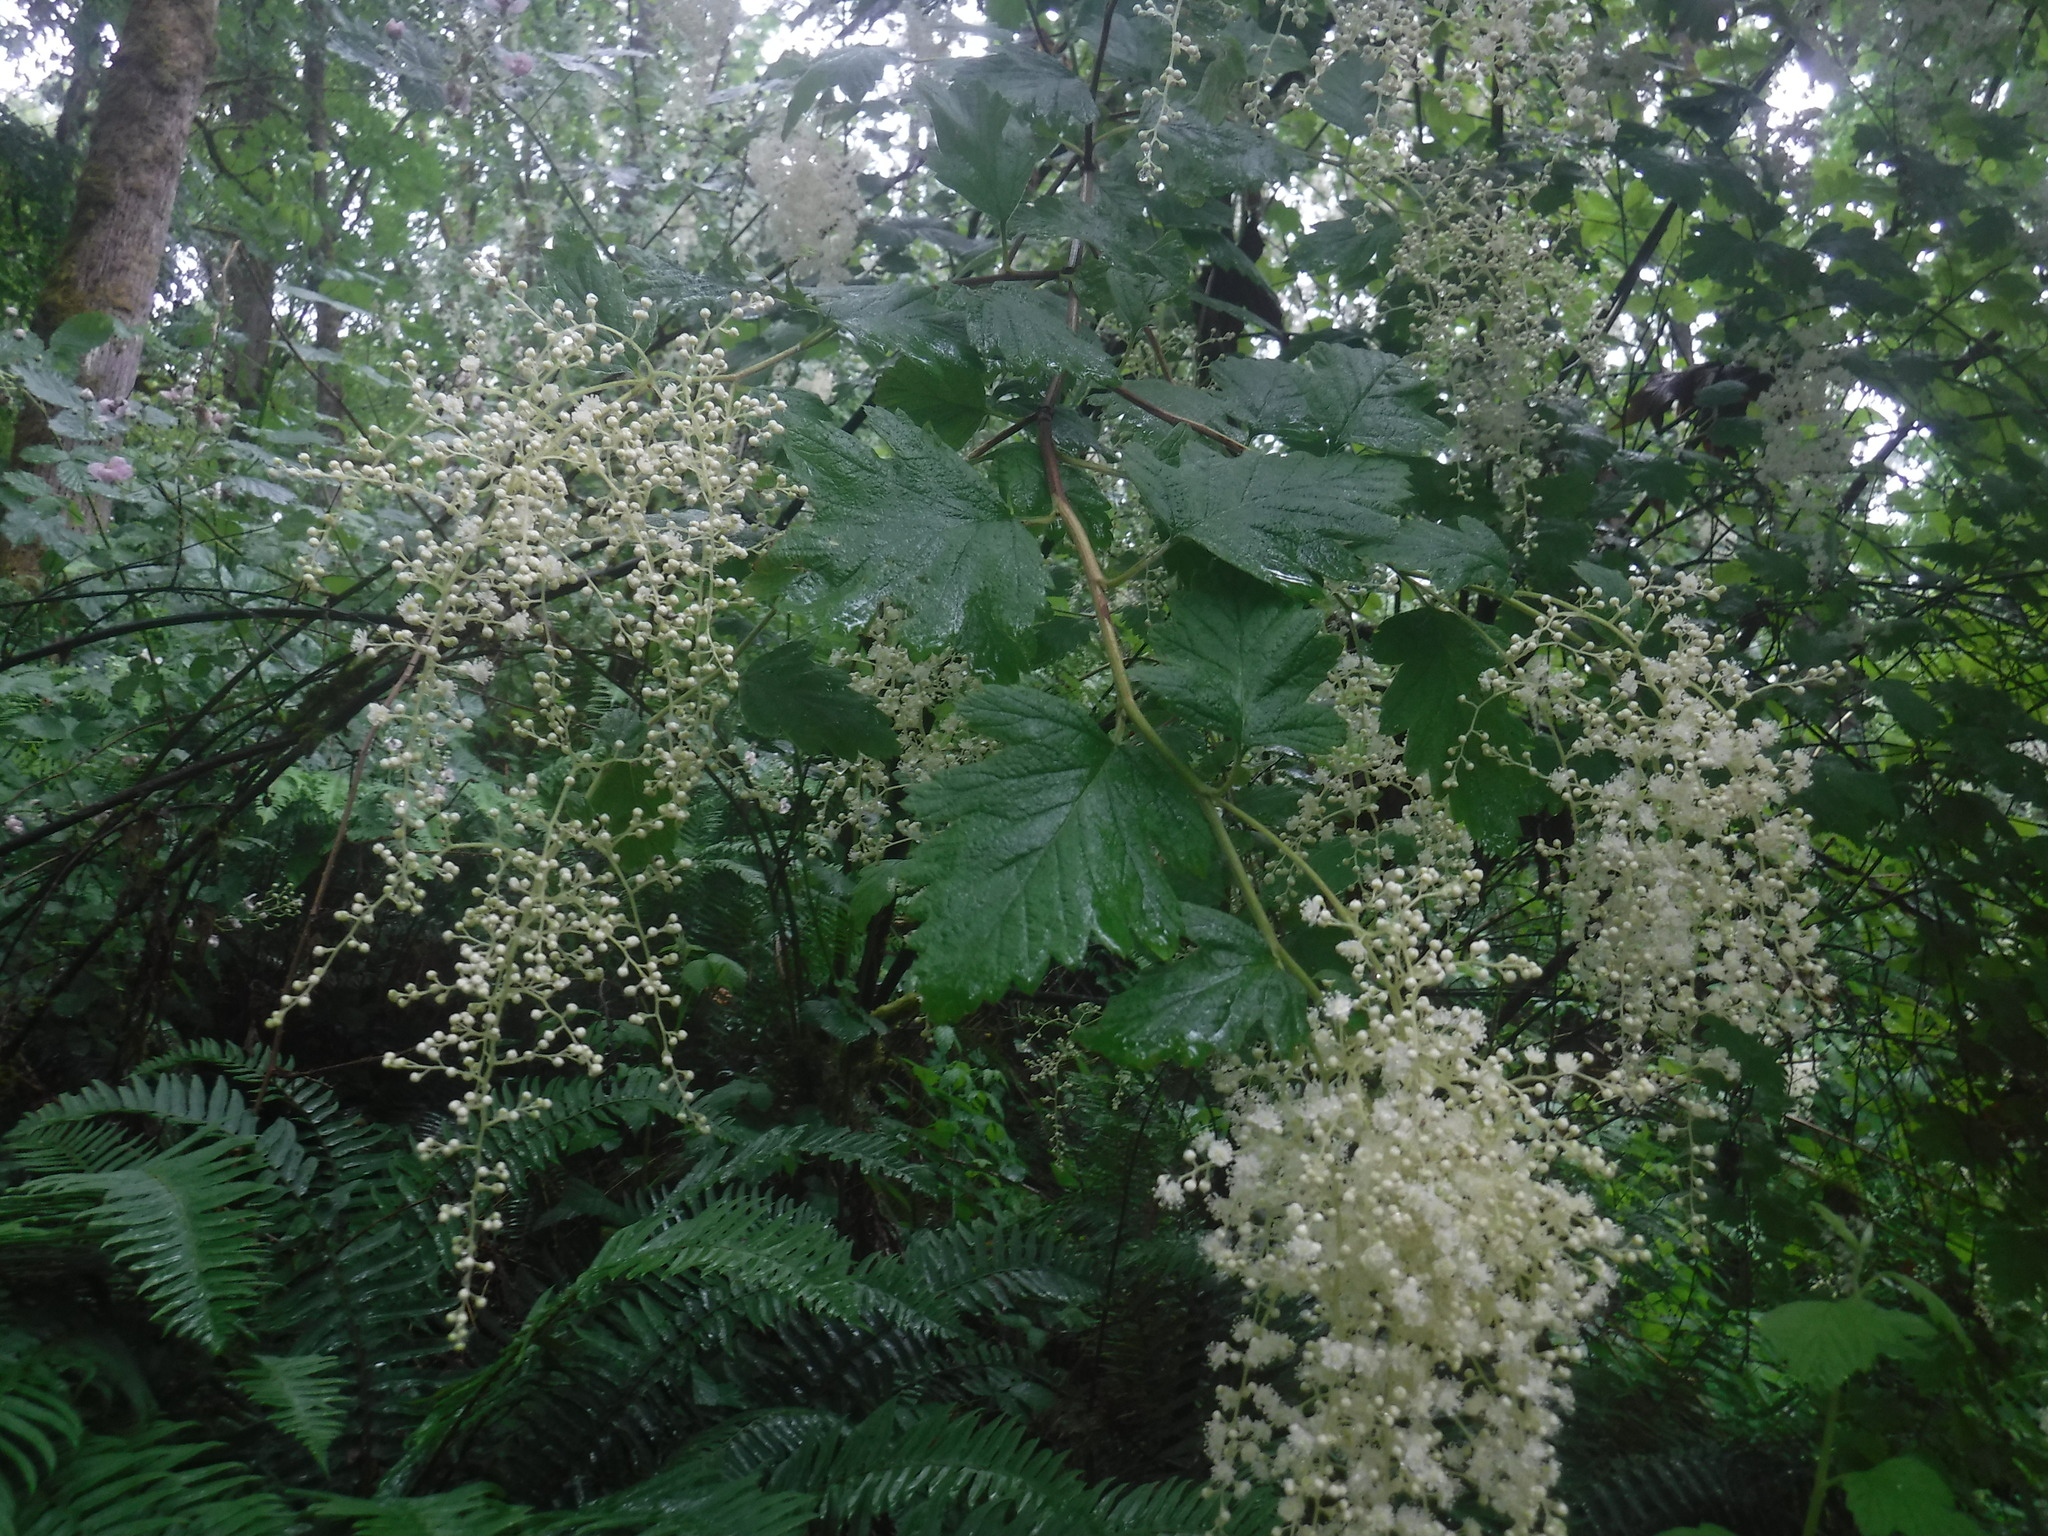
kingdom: Plantae
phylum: Tracheophyta
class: Magnoliopsida
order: Rosales
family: Rosaceae
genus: Holodiscus
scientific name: Holodiscus discolor
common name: Oceanspray
